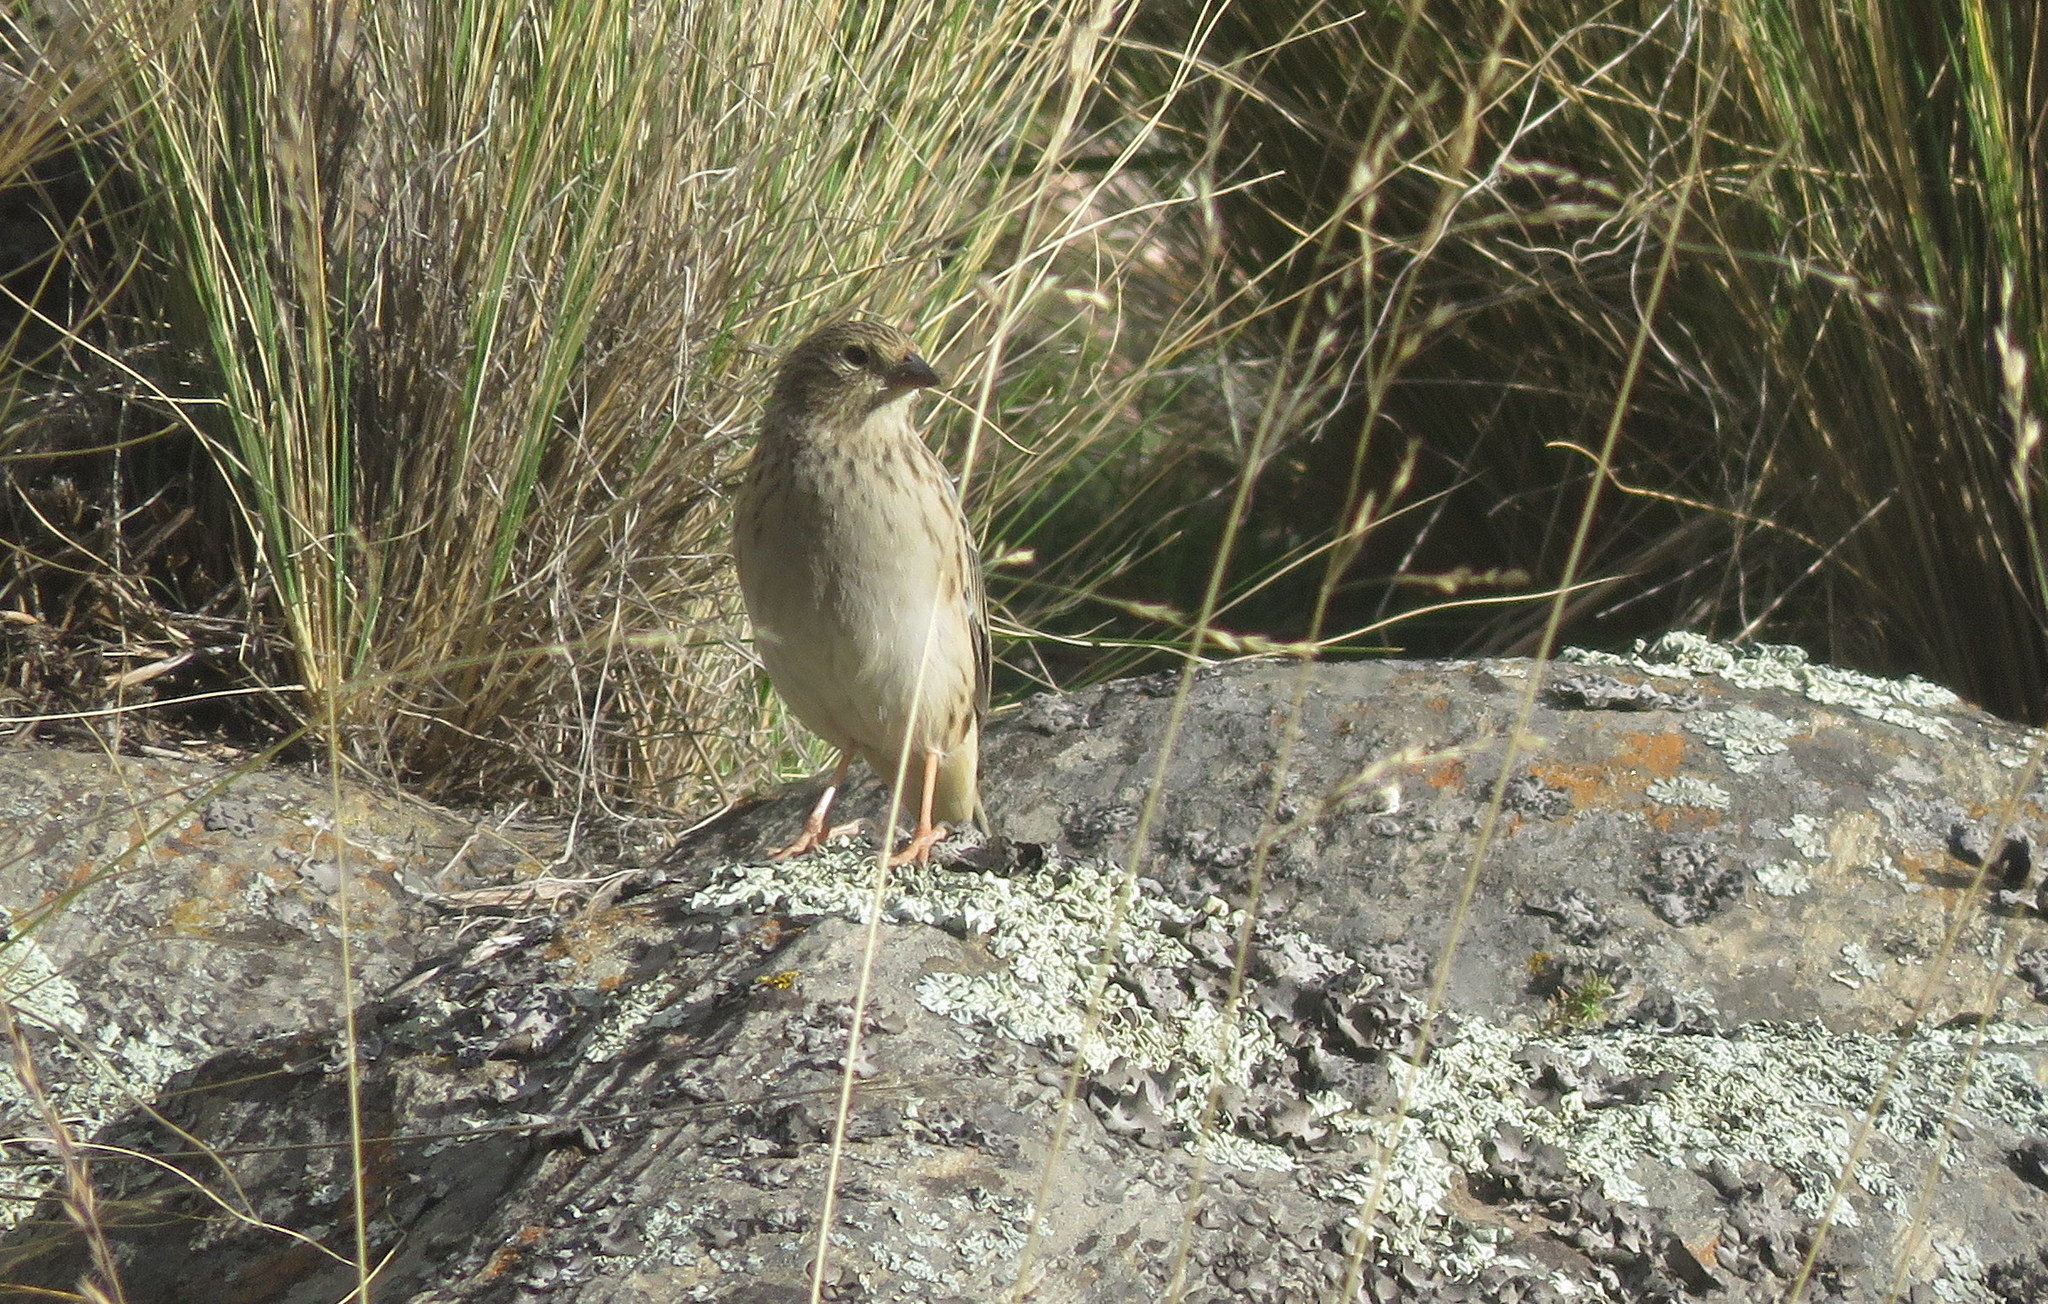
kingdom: Animalia
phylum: Chordata
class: Aves
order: Passeriformes
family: Thraupidae
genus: Porphyrospiza
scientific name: Porphyrospiza alaudina
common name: Band-tailed sierra finch
